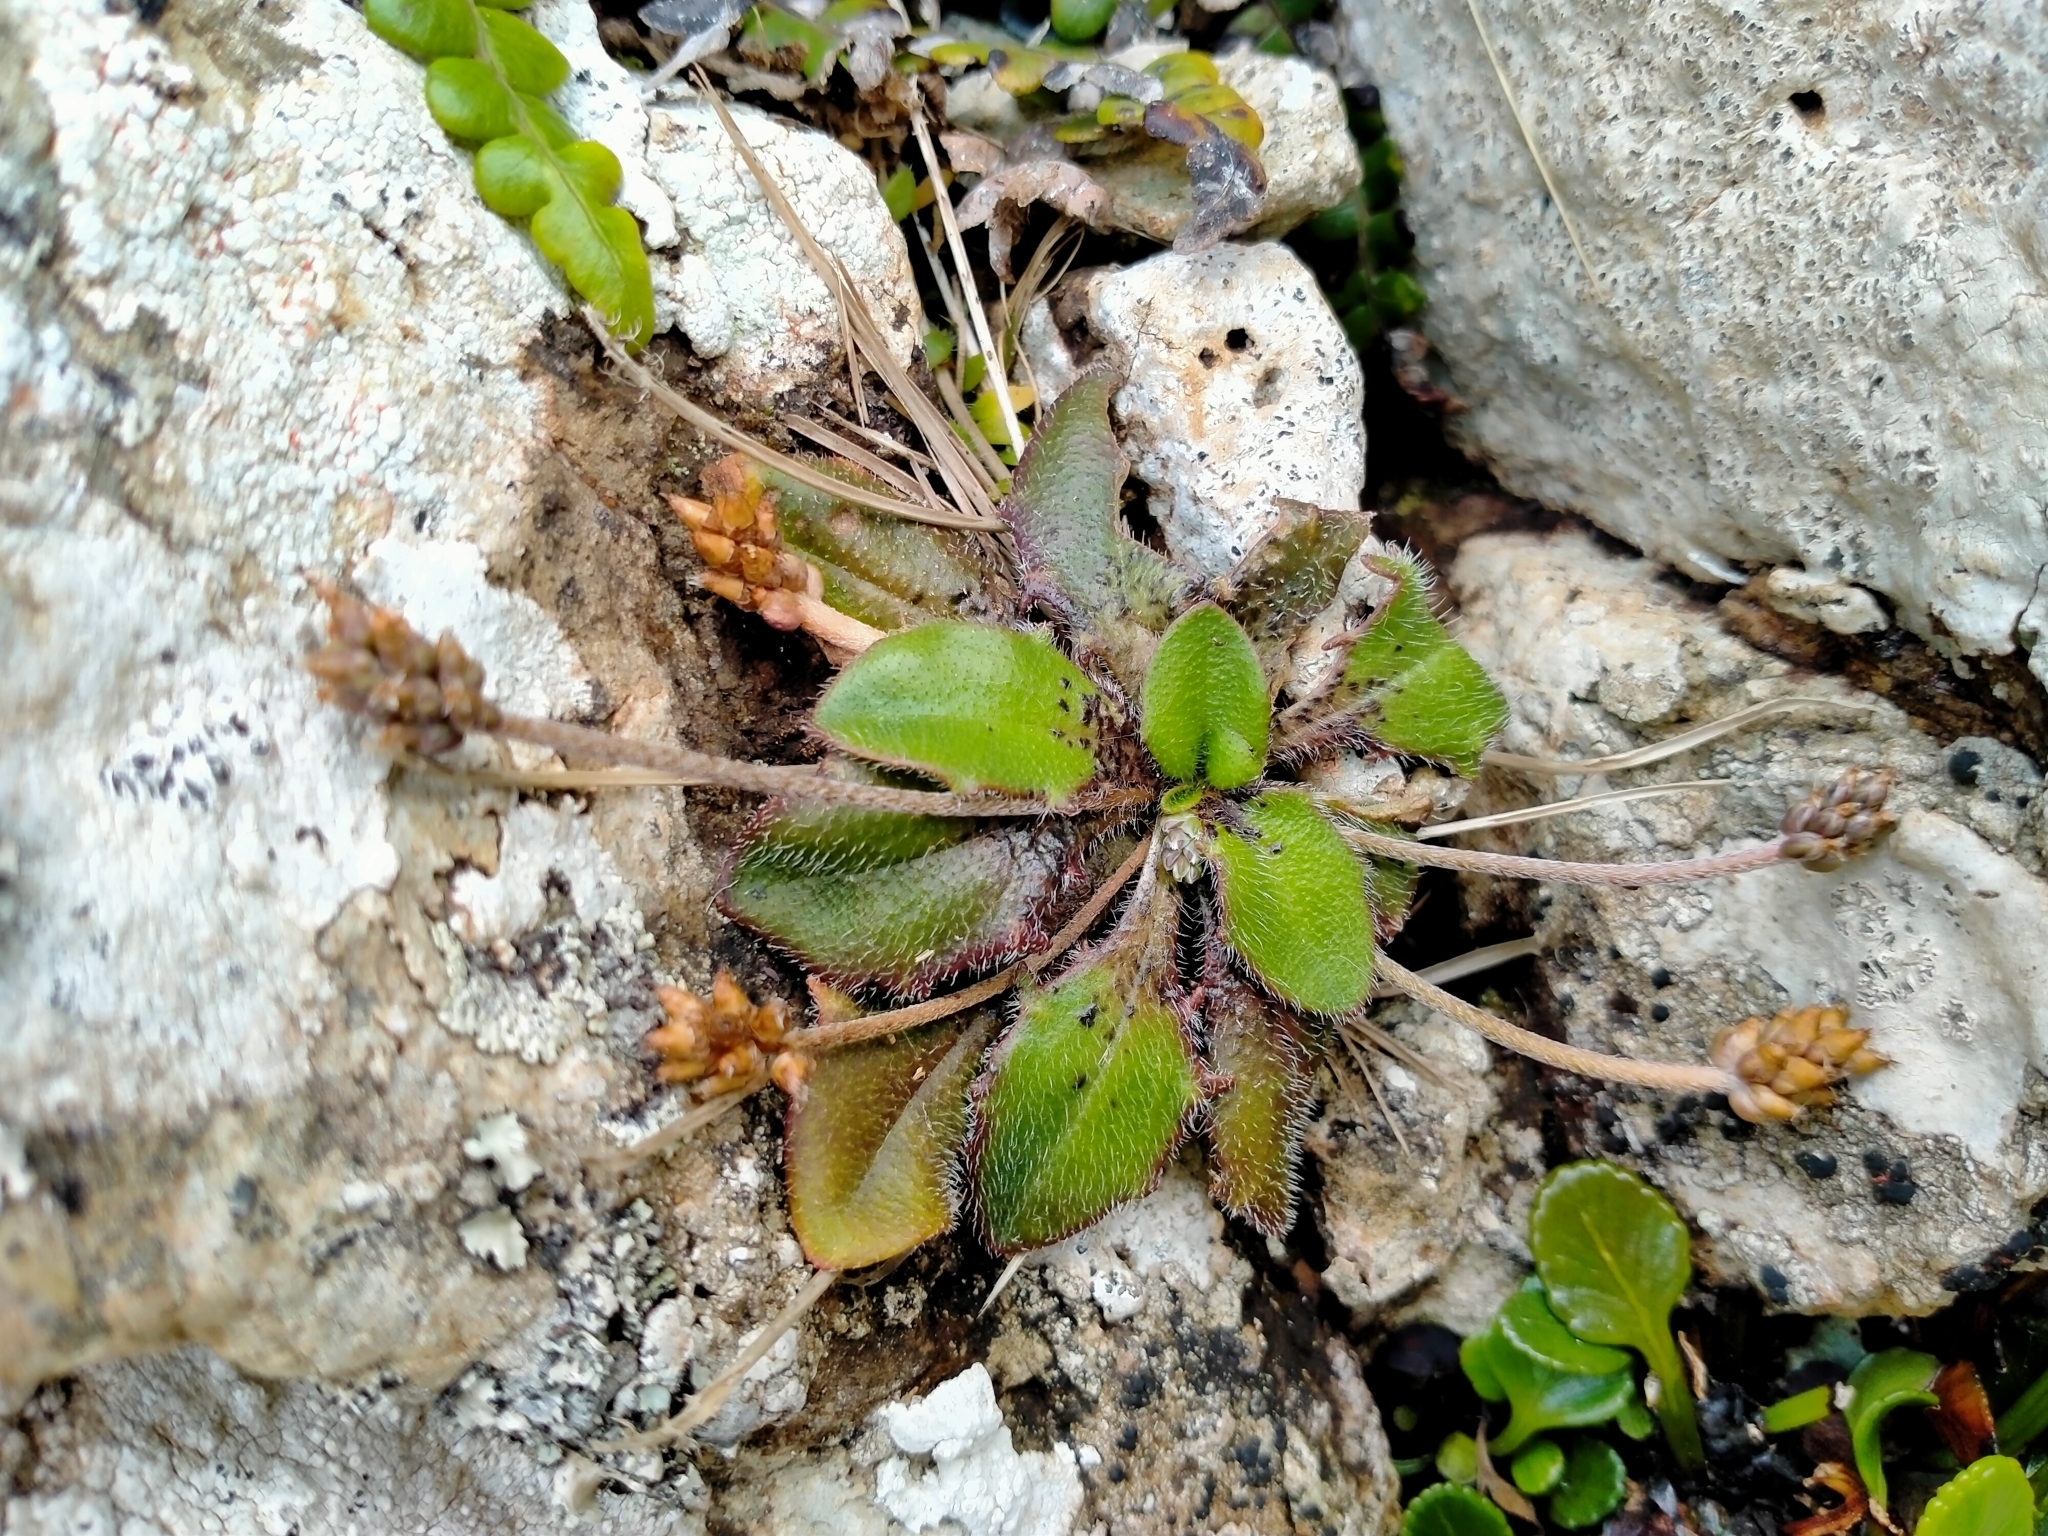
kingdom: Plantae
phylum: Tracheophyta
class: Magnoliopsida
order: Lamiales
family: Plantaginaceae
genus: Plantago
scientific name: Plantago raoulii
